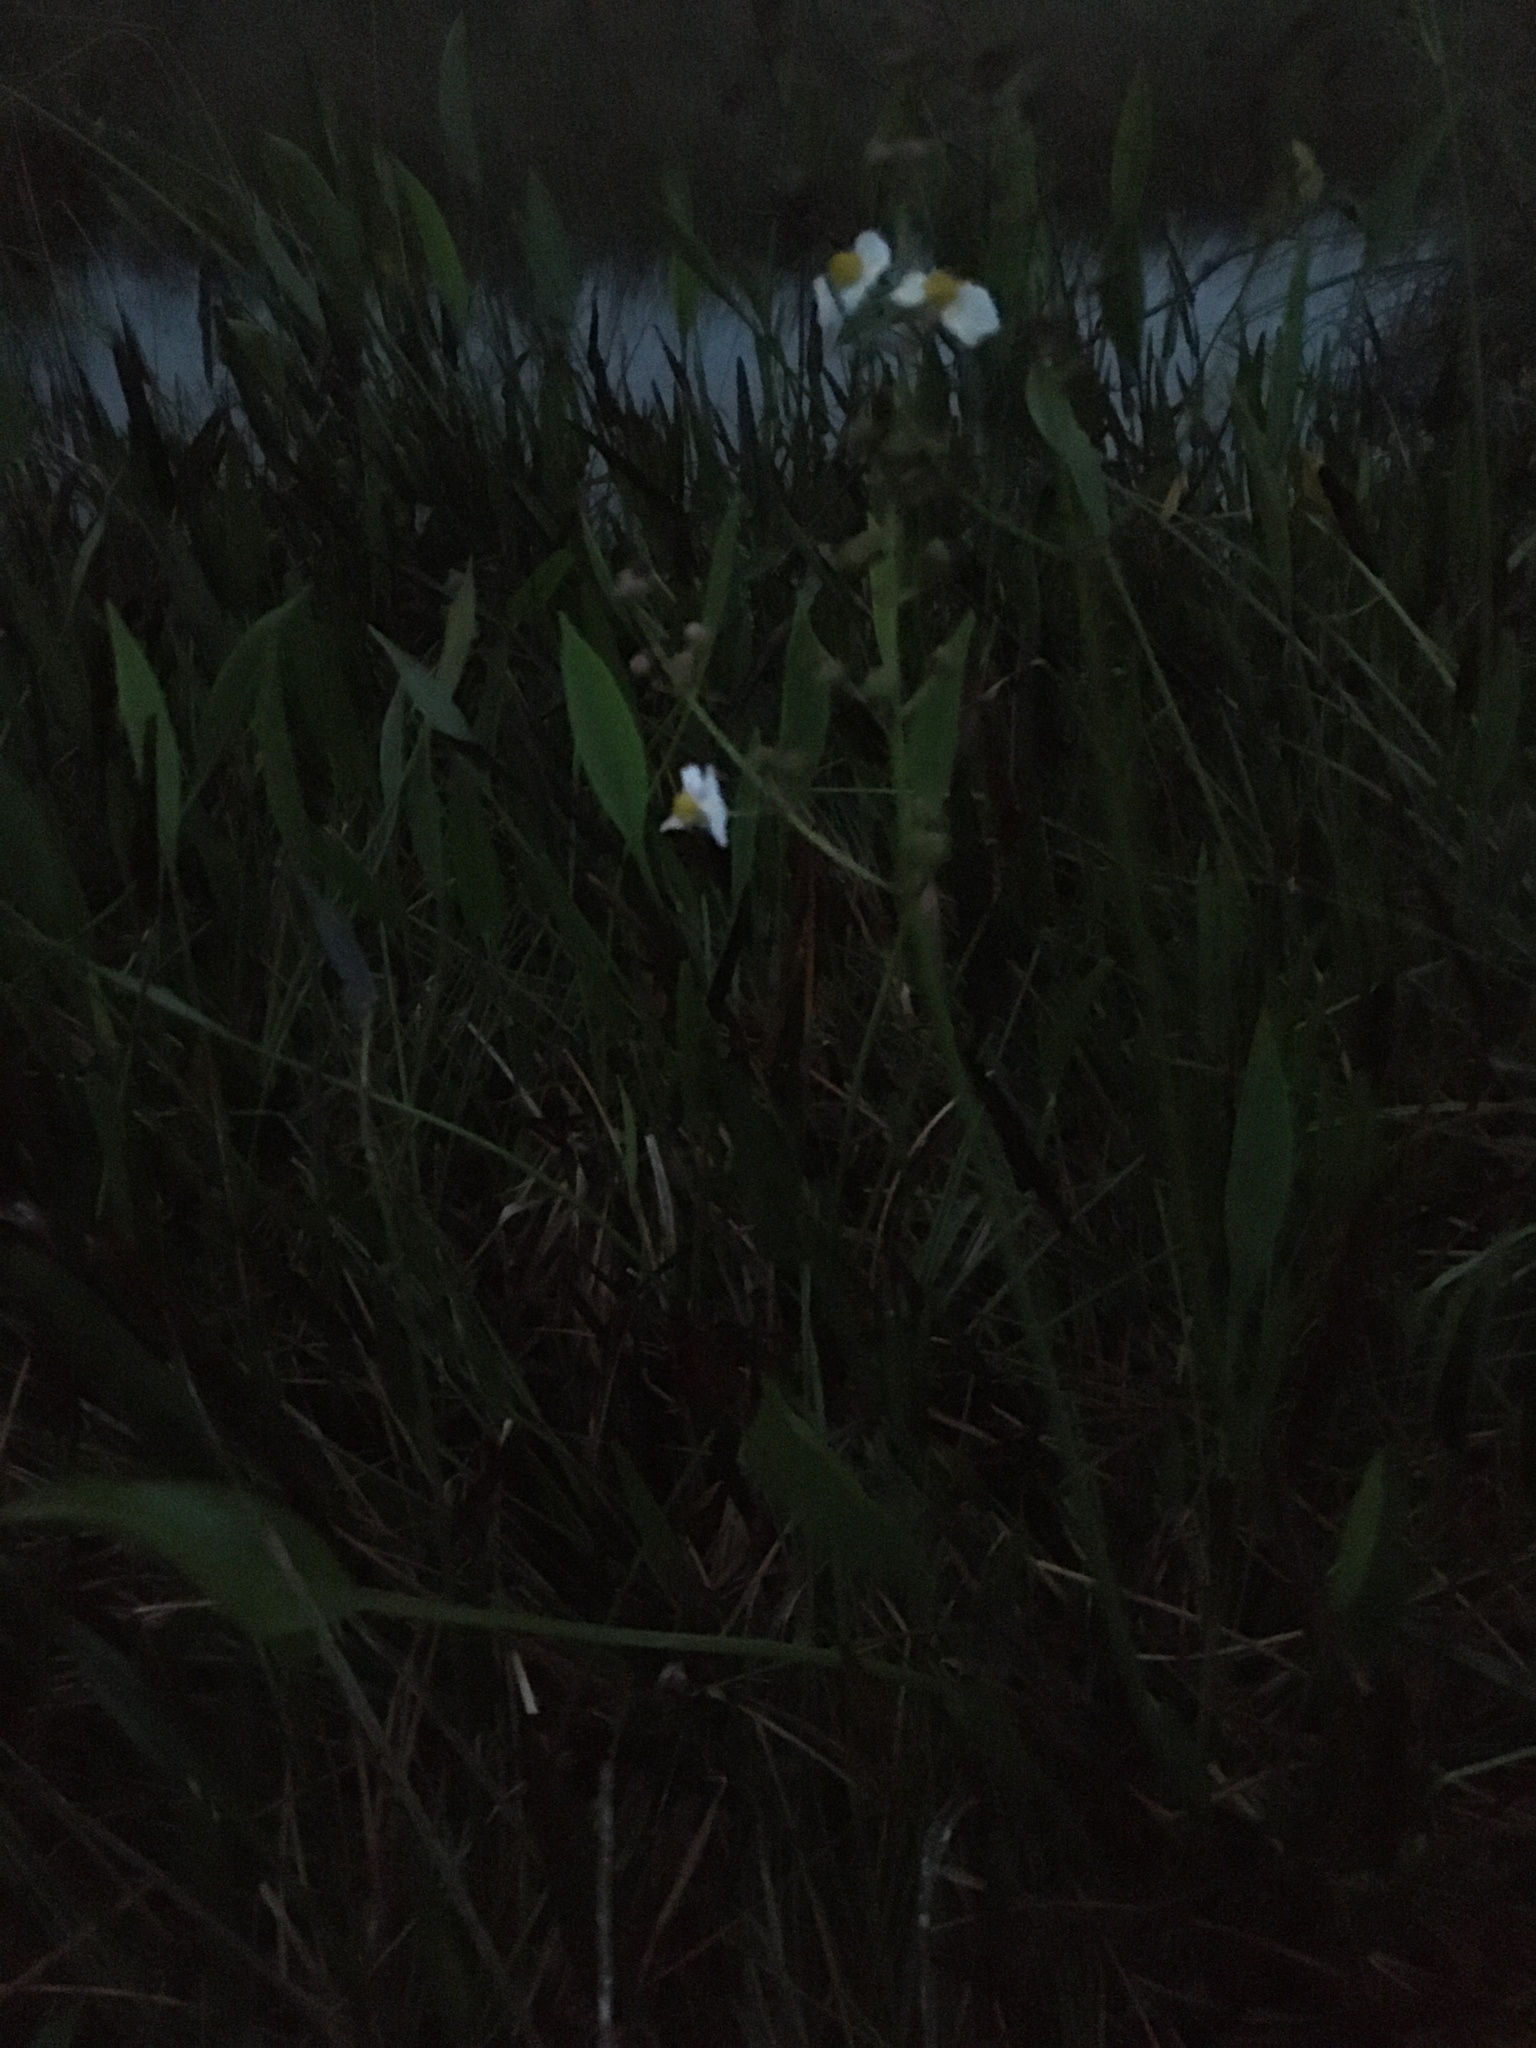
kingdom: Plantae
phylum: Tracheophyta
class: Liliopsida
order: Alismatales
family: Alismataceae
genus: Sagittaria
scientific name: Sagittaria lancifolia
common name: Lance-leaf arrowhead
